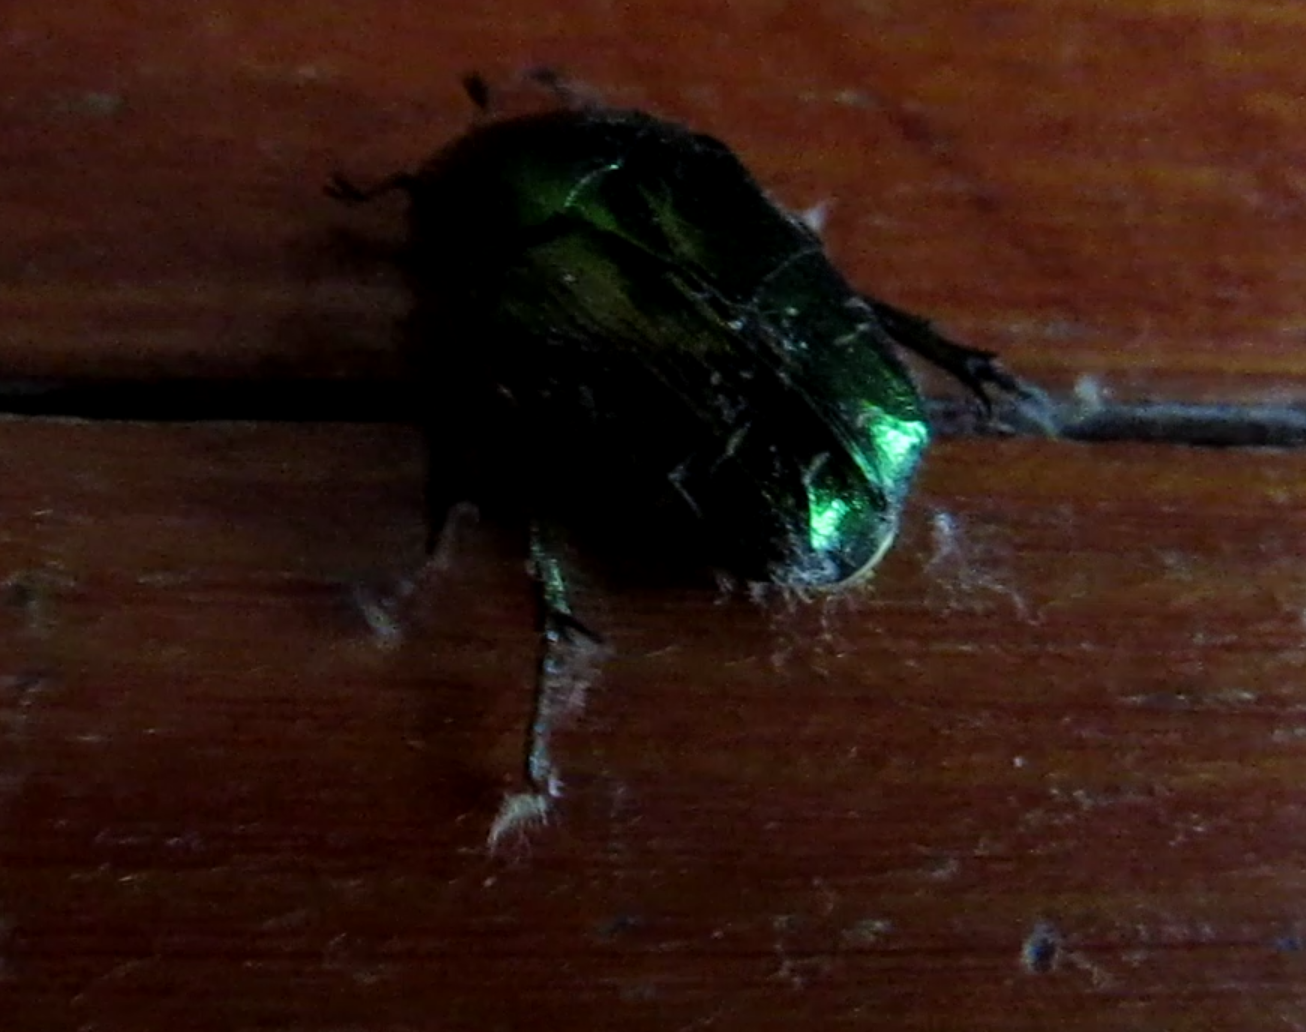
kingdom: Animalia
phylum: Arthropoda
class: Insecta
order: Coleoptera
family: Scarabaeidae
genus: Cetonia
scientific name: Cetonia aurata
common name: Rose chafer
